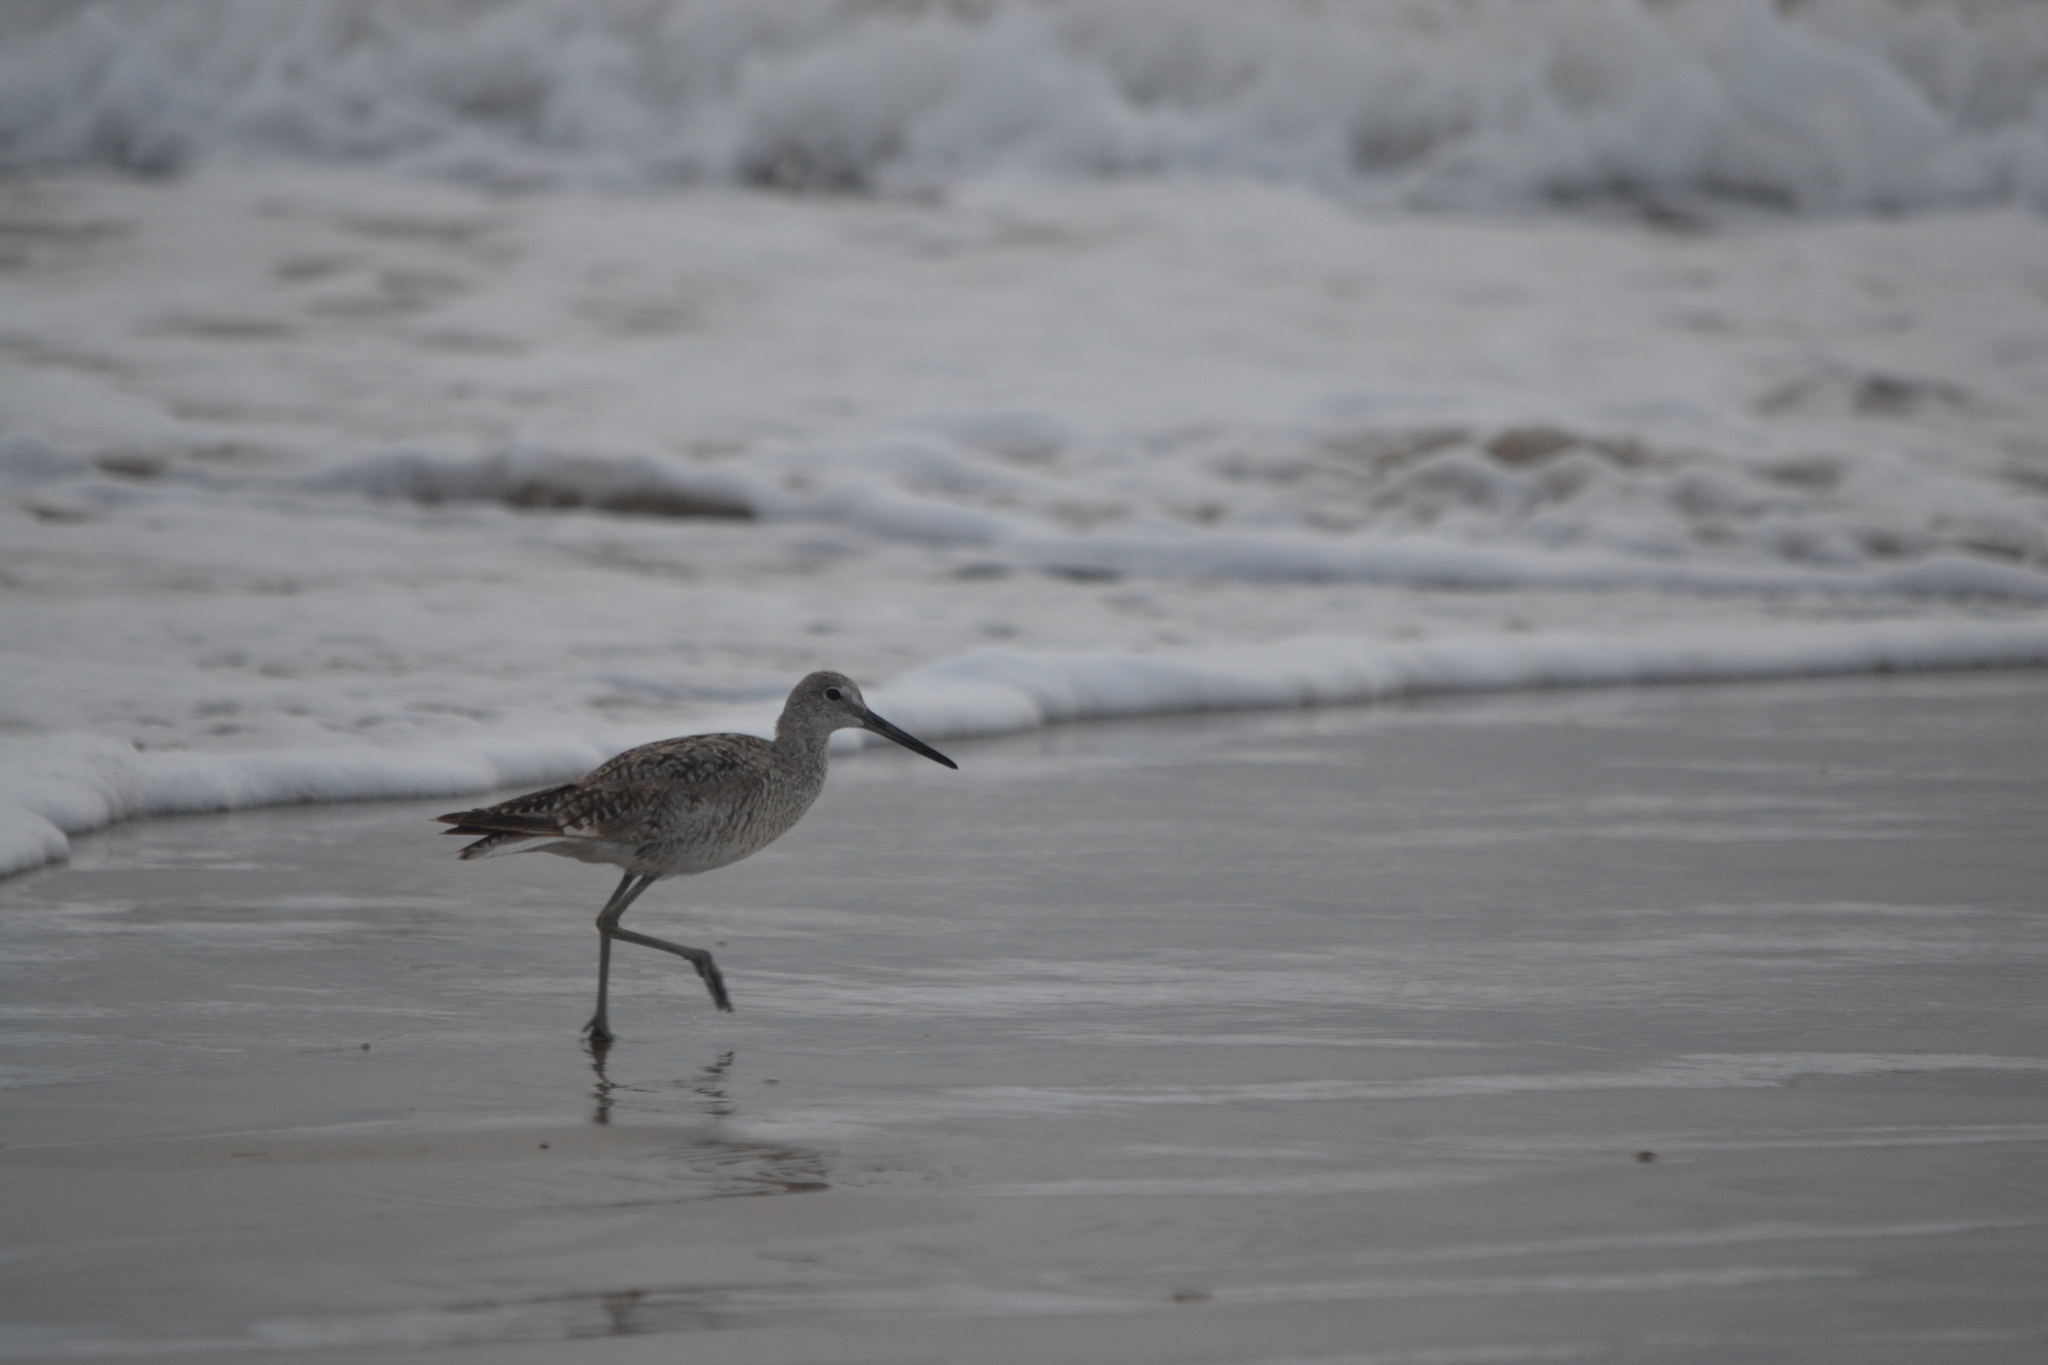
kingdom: Animalia
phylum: Chordata
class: Aves
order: Charadriiformes
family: Scolopacidae
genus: Tringa
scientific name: Tringa semipalmata
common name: Willet
